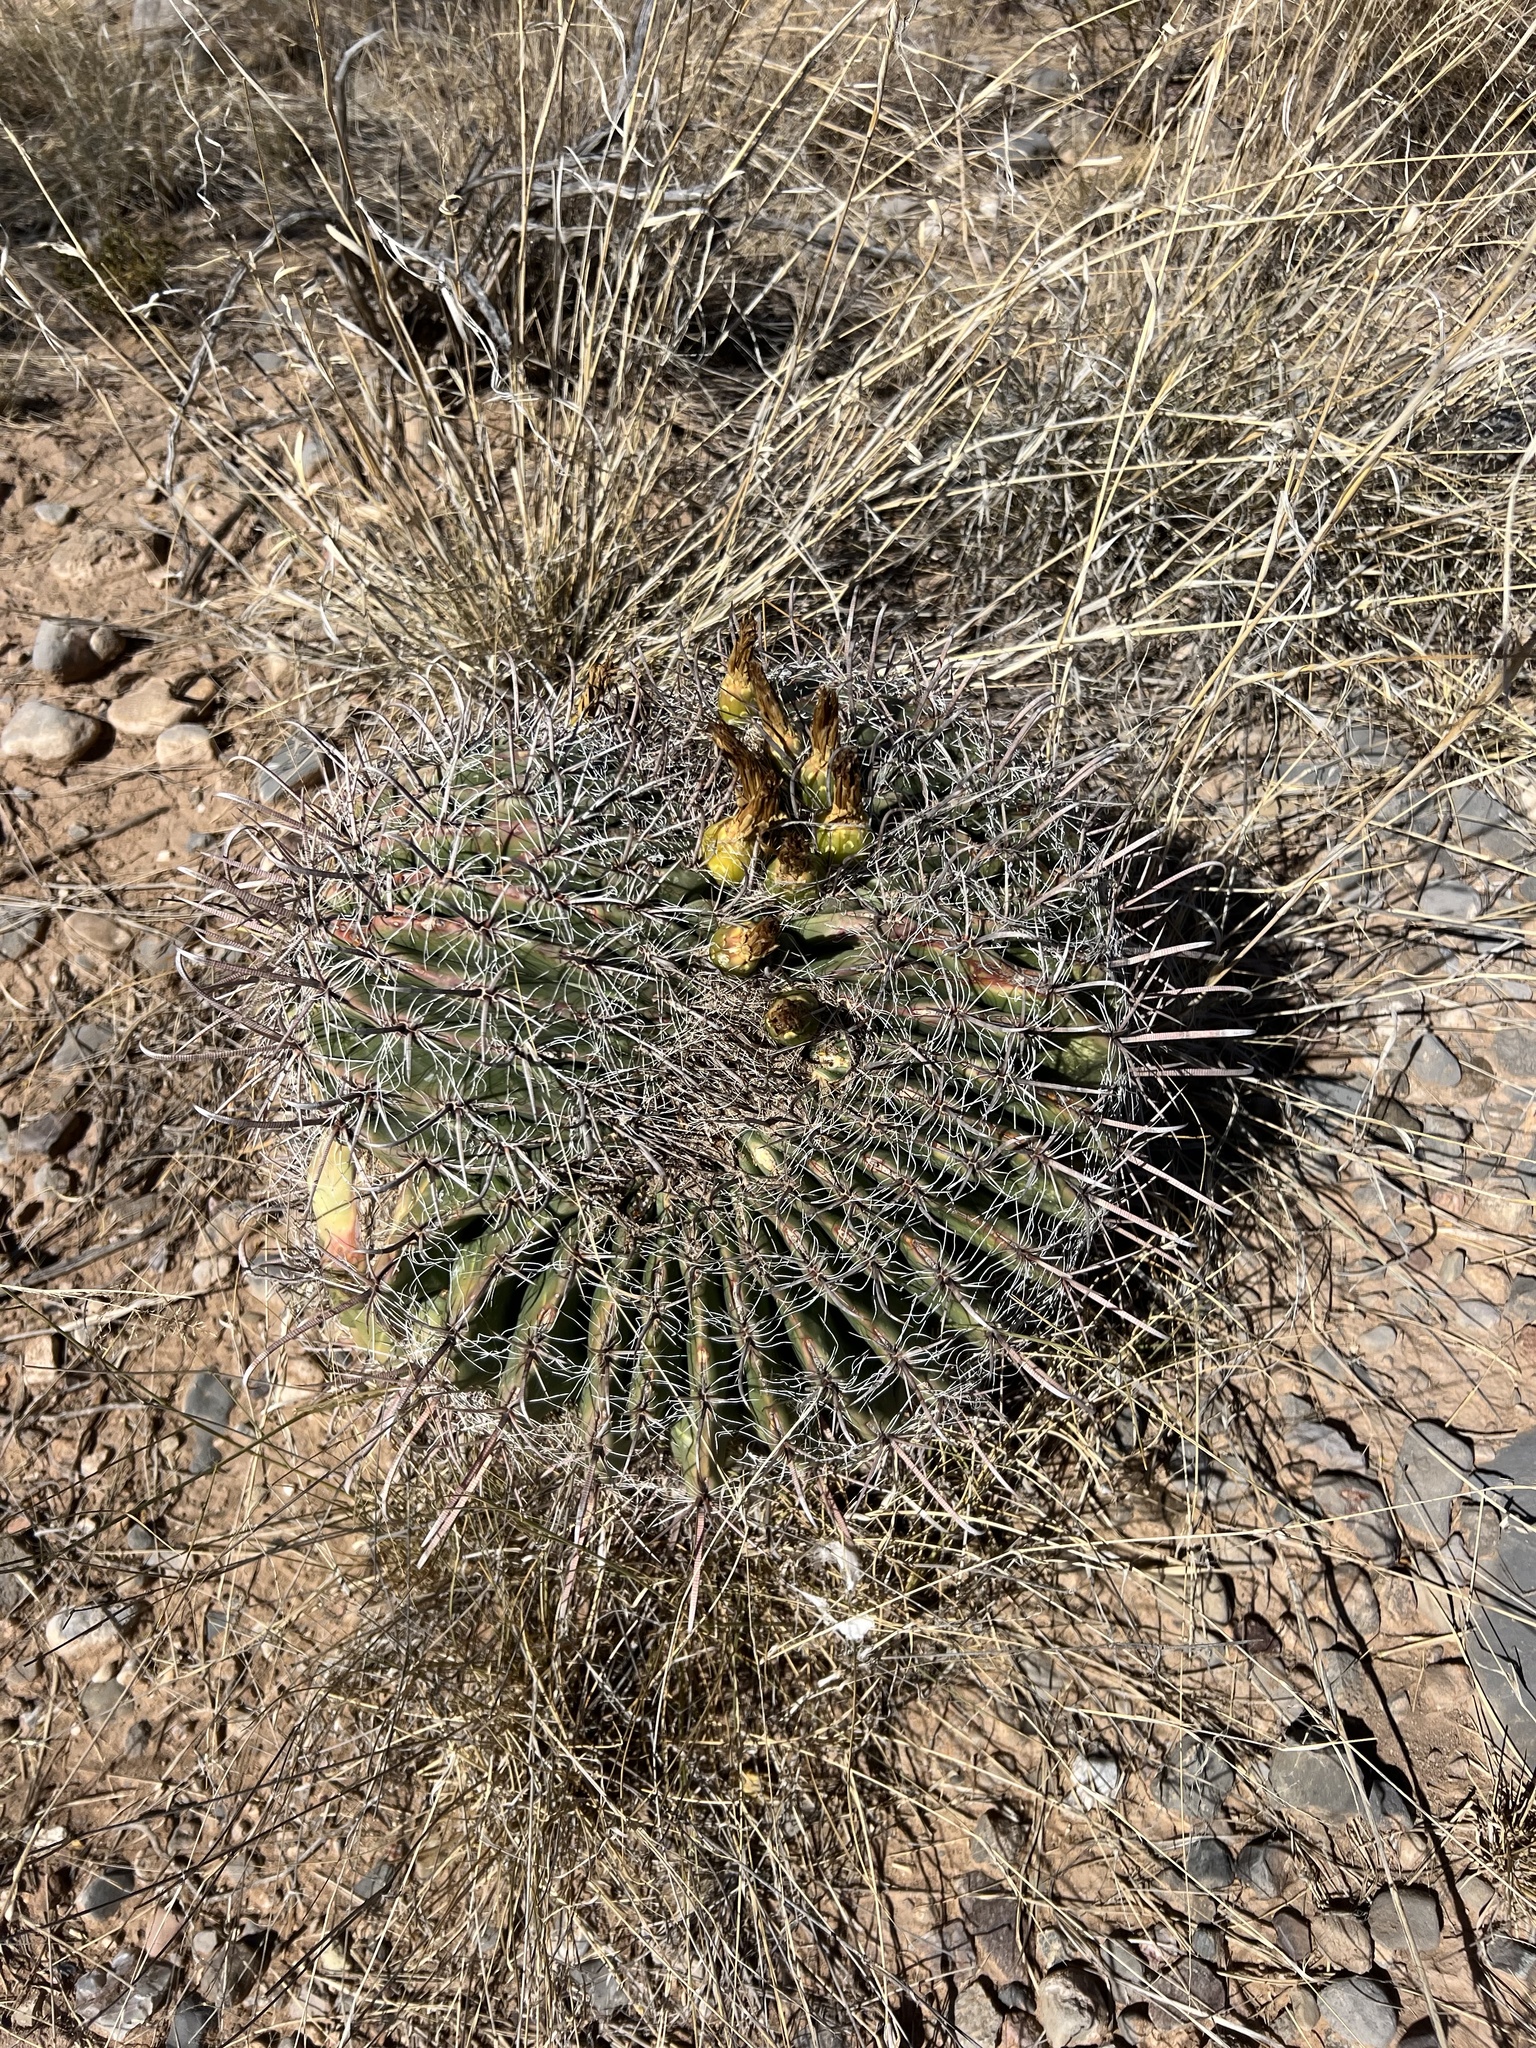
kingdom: Plantae
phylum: Tracheophyta
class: Magnoliopsida
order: Caryophyllales
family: Cactaceae
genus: Ferocactus
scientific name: Ferocactus wislizeni
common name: Candy barrel cactus
